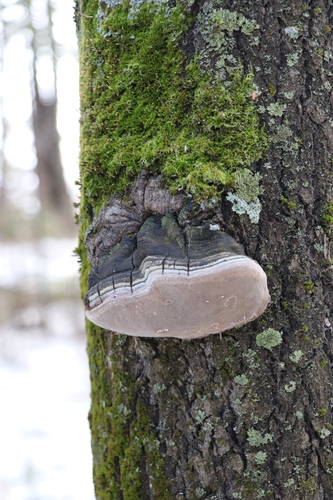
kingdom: Fungi
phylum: Basidiomycota
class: Agaricomycetes
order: Hymenochaetales
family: Hymenochaetaceae
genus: Phellinus
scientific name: Phellinus tremulae
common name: Aspen bracket
